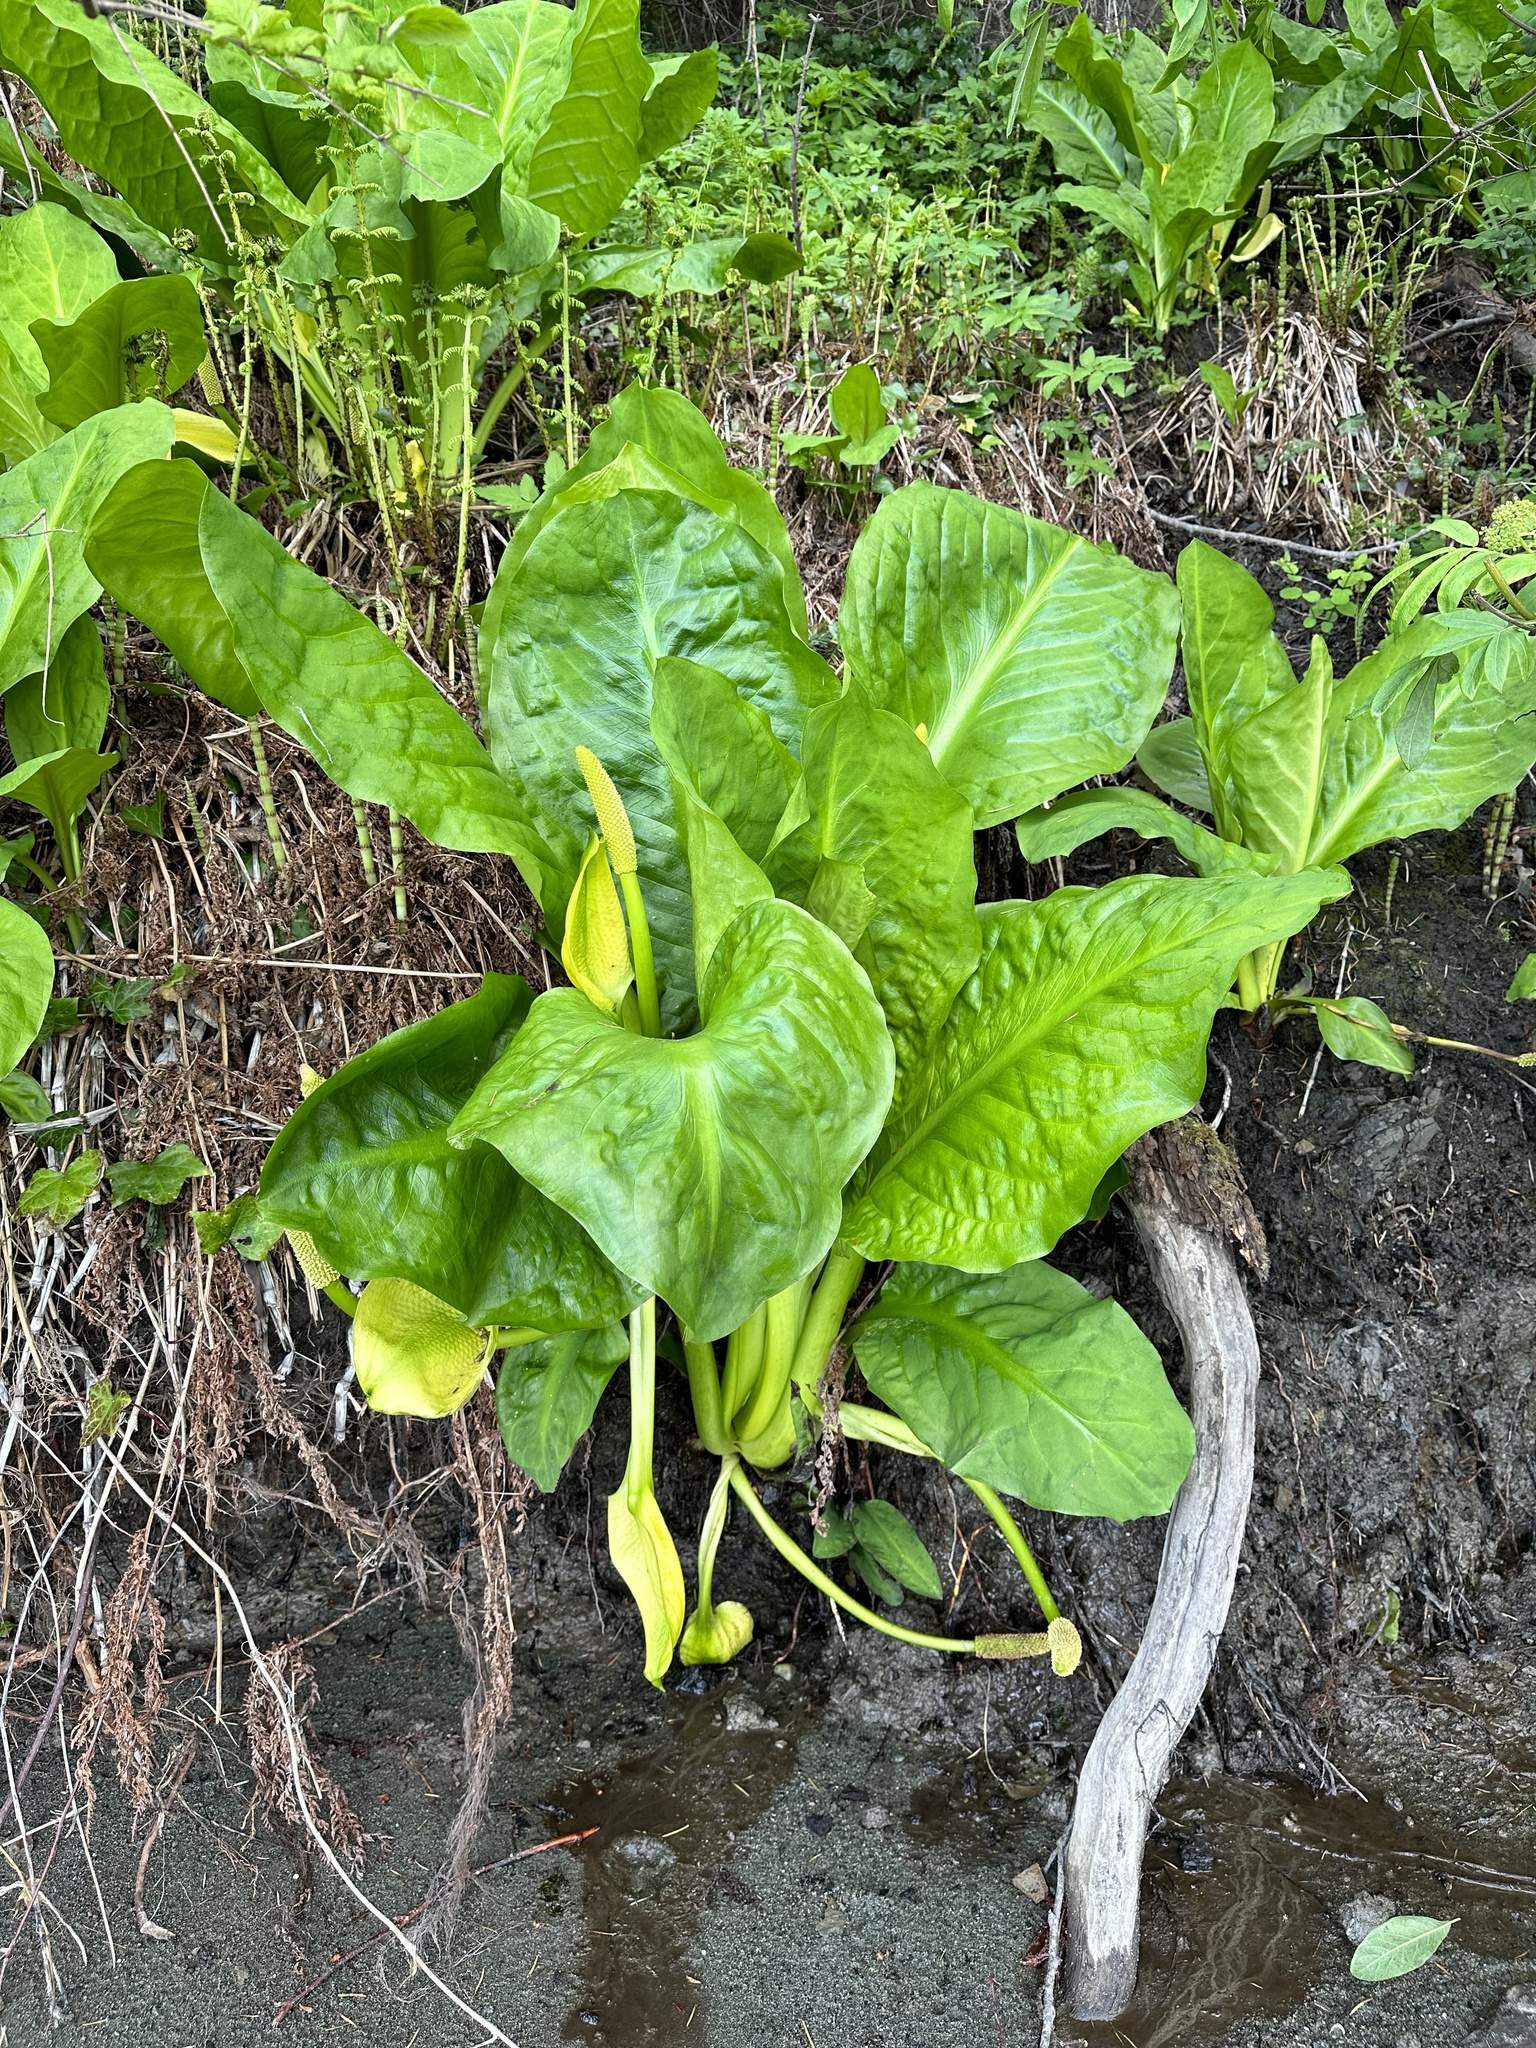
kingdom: Plantae
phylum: Tracheophyta
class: Liliopsida
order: Alismatales
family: Araceae
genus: Lysichiton
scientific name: Lysichiton americanus
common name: American skunk cabbage
